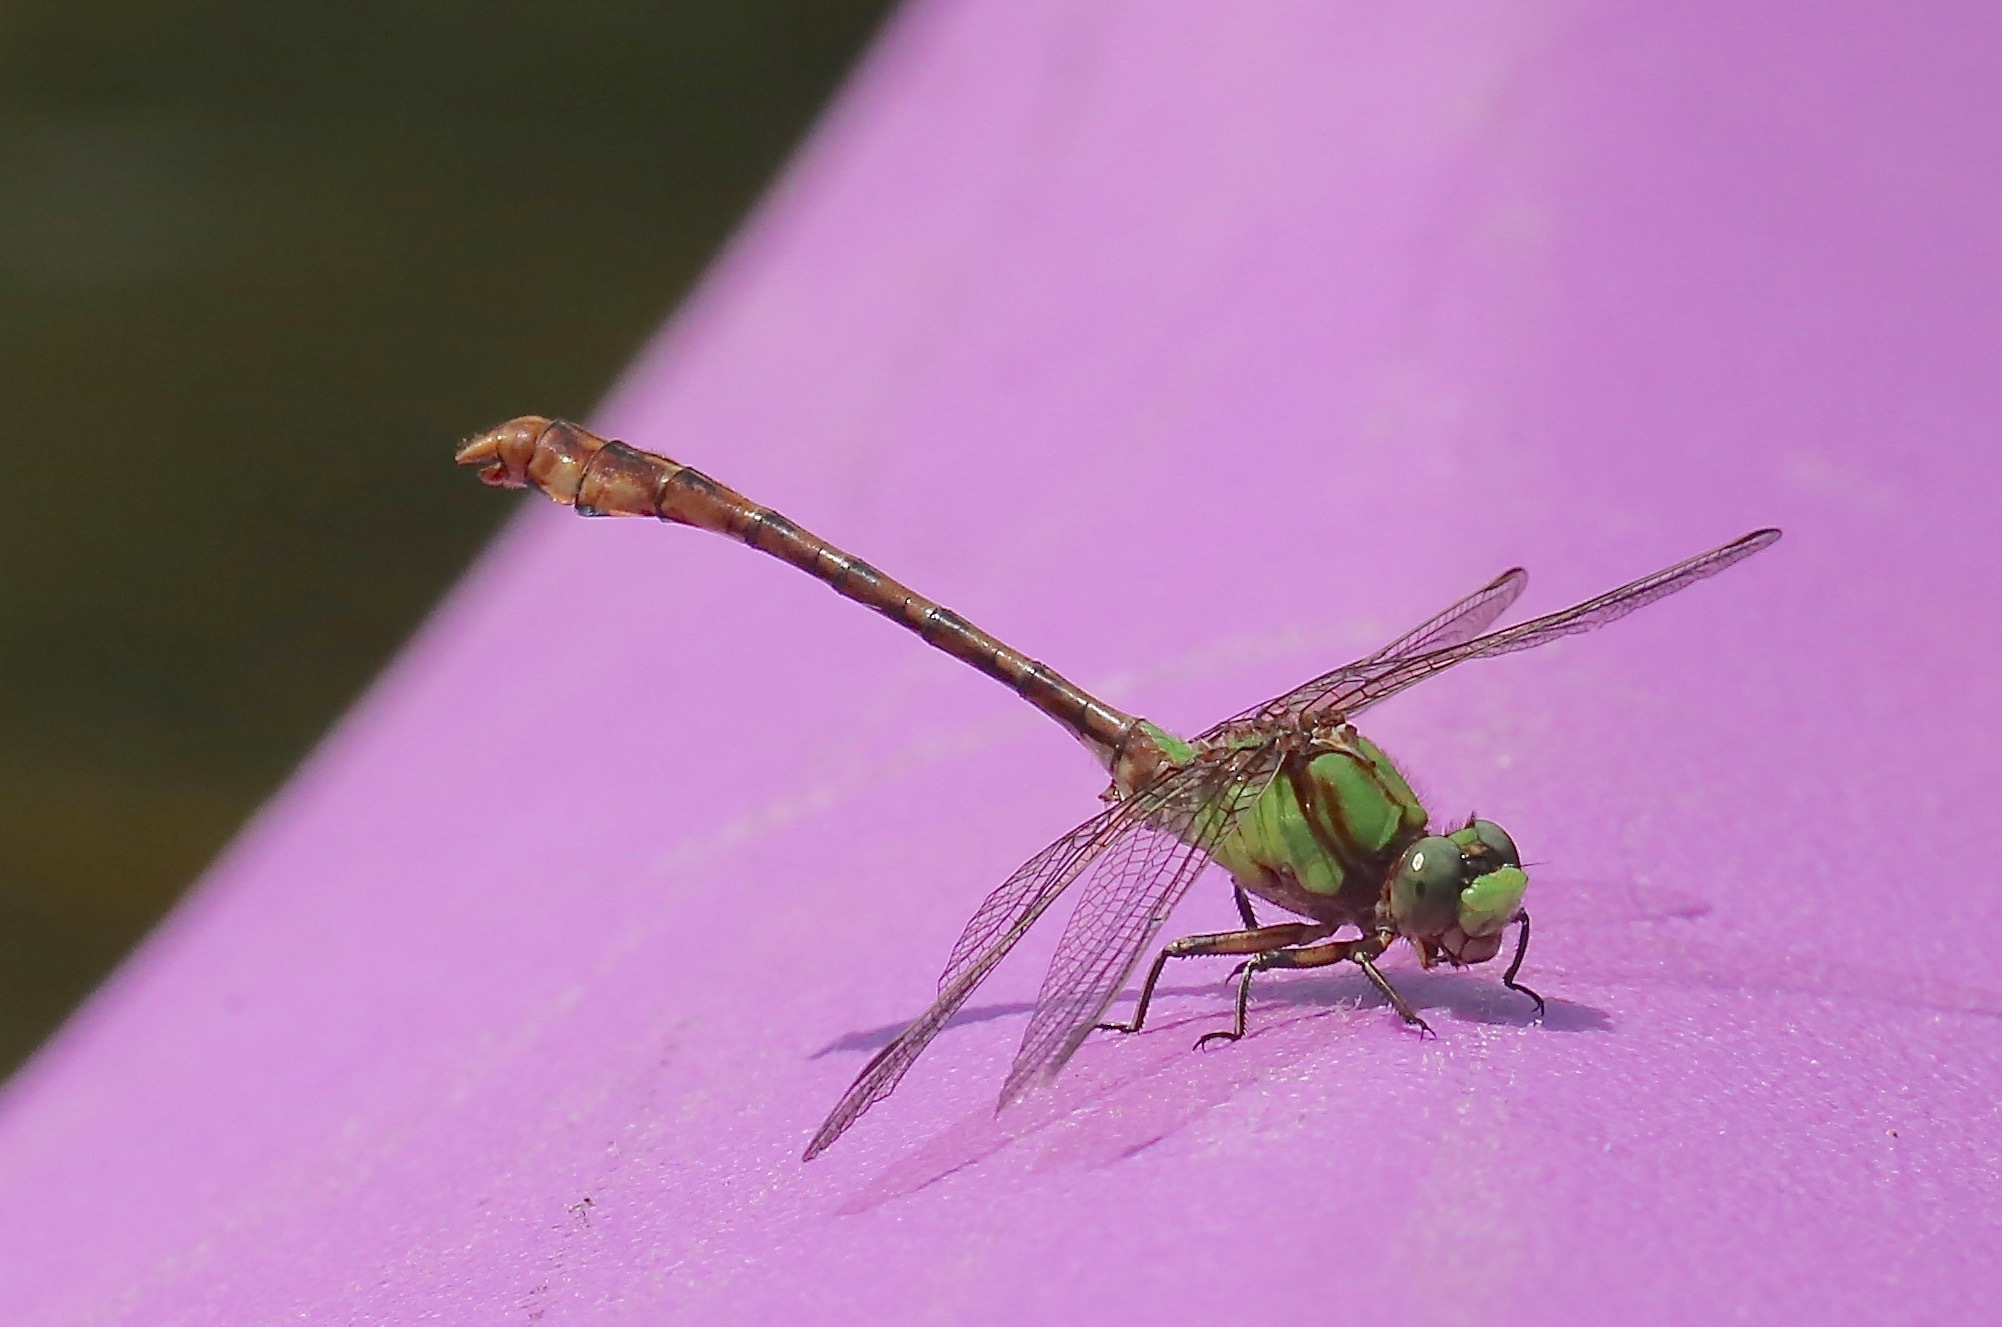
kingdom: Animalia
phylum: Arthropoda
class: Insecta
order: Odonata
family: Gomphidae
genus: Ophiogomphus
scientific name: Ophiogomphus rupinsulensis
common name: Rusty snaketail
